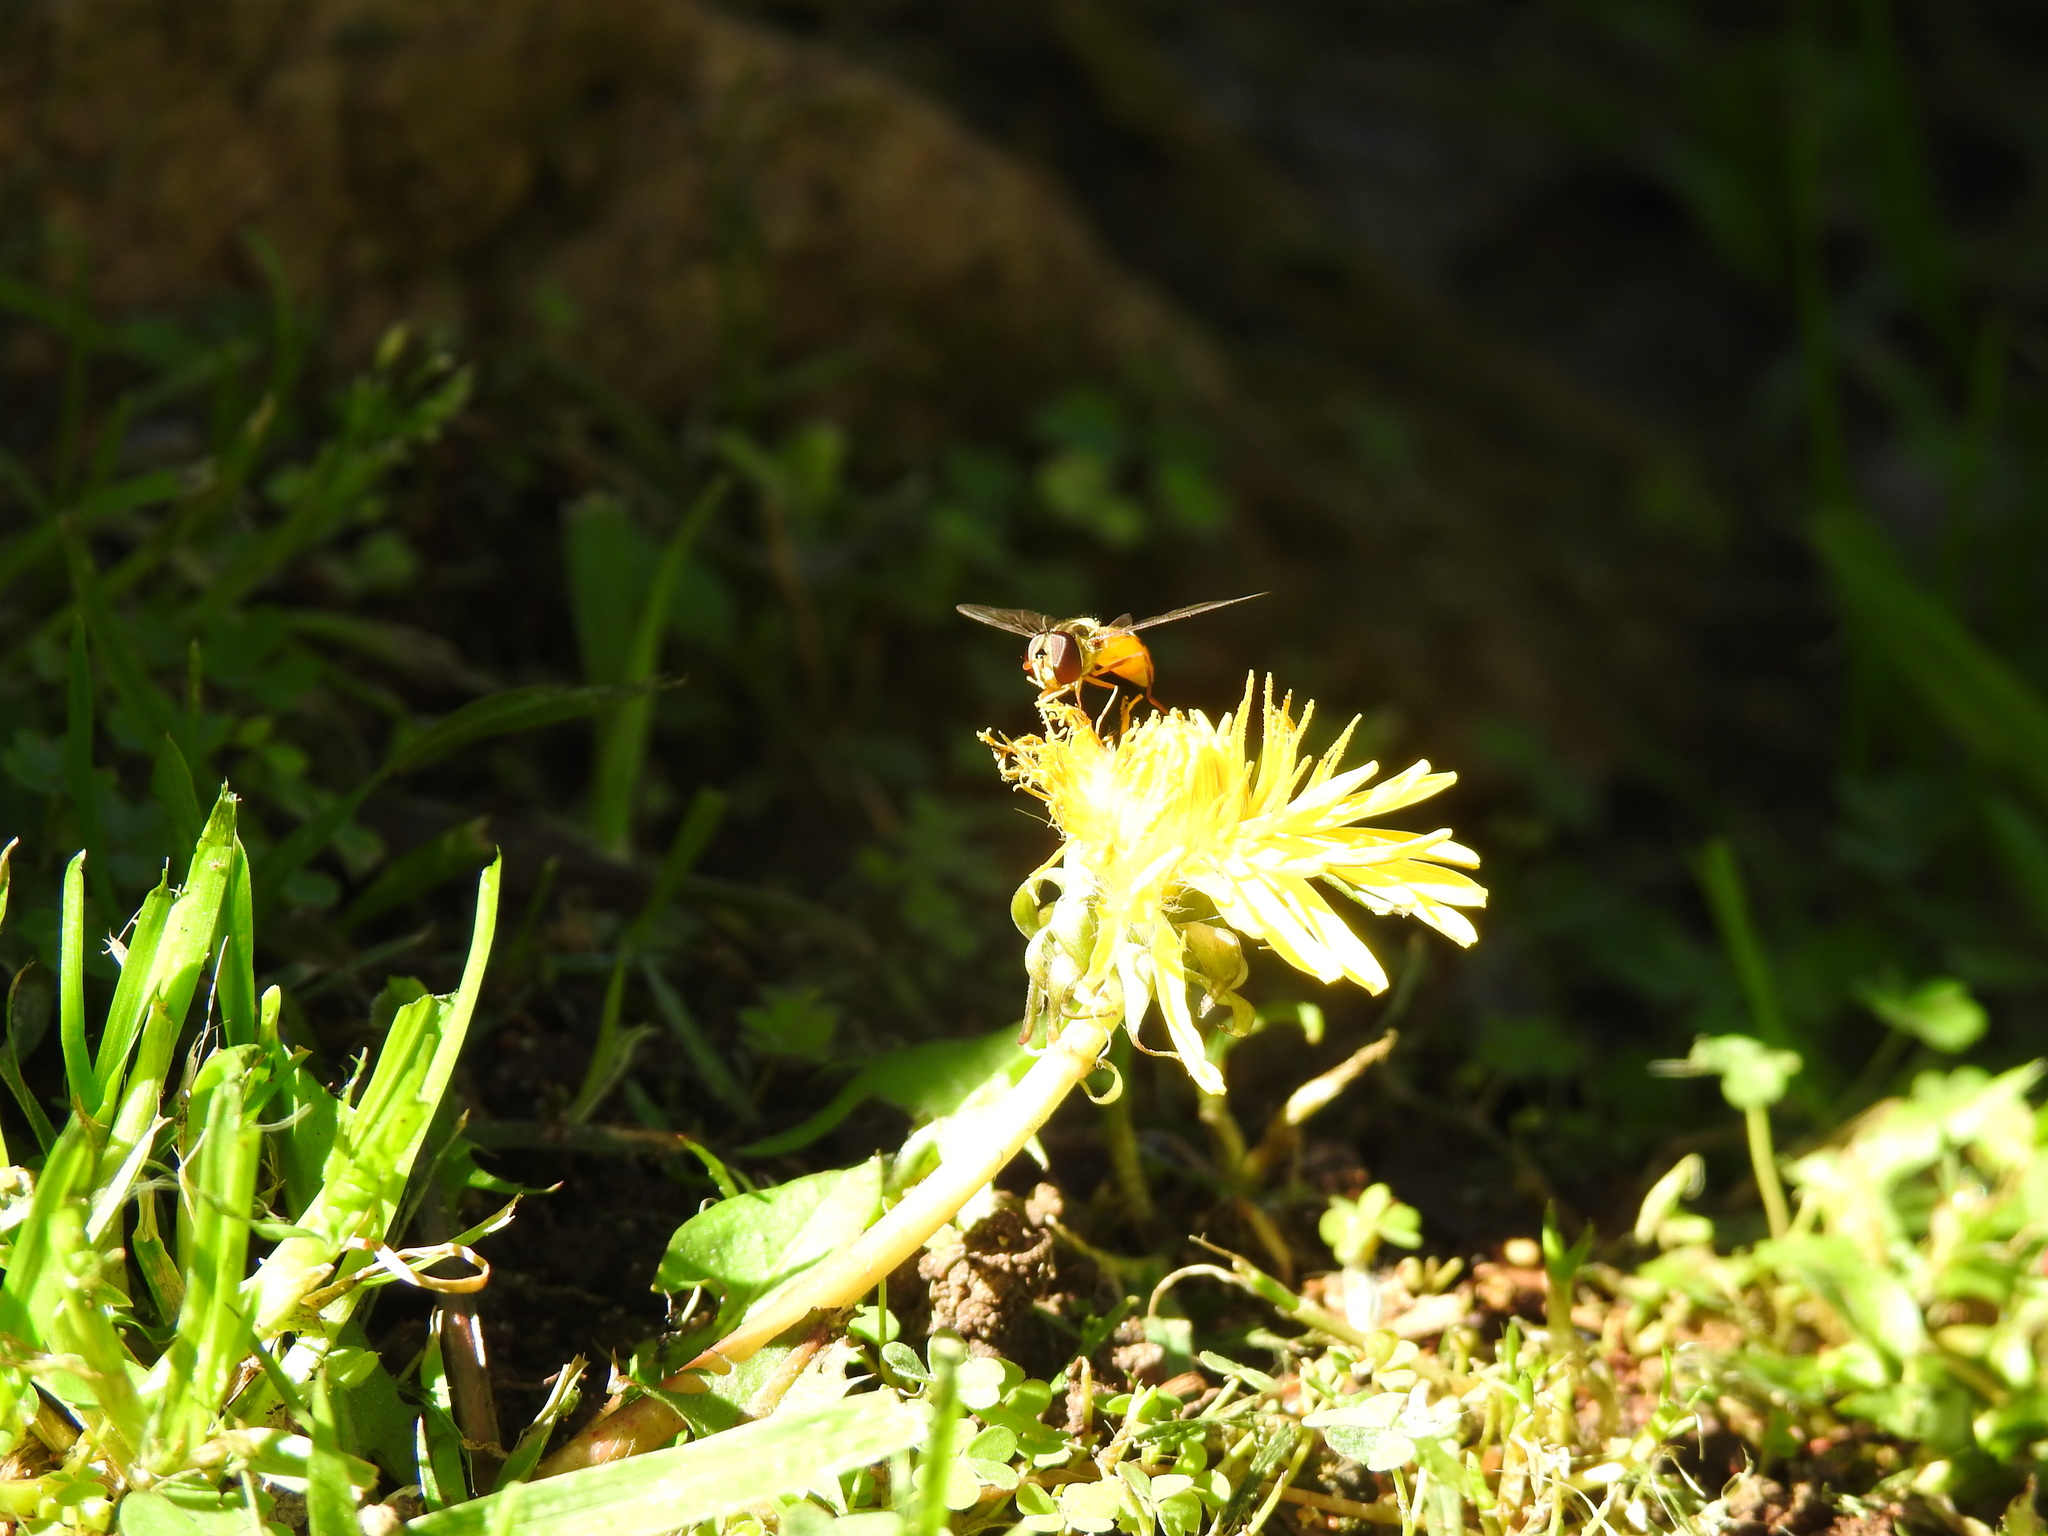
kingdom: Animalia
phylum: Arthropoda
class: Insecta
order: Diptera
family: Syrphidae
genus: Episyrphus
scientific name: Episyrphus trisectus
